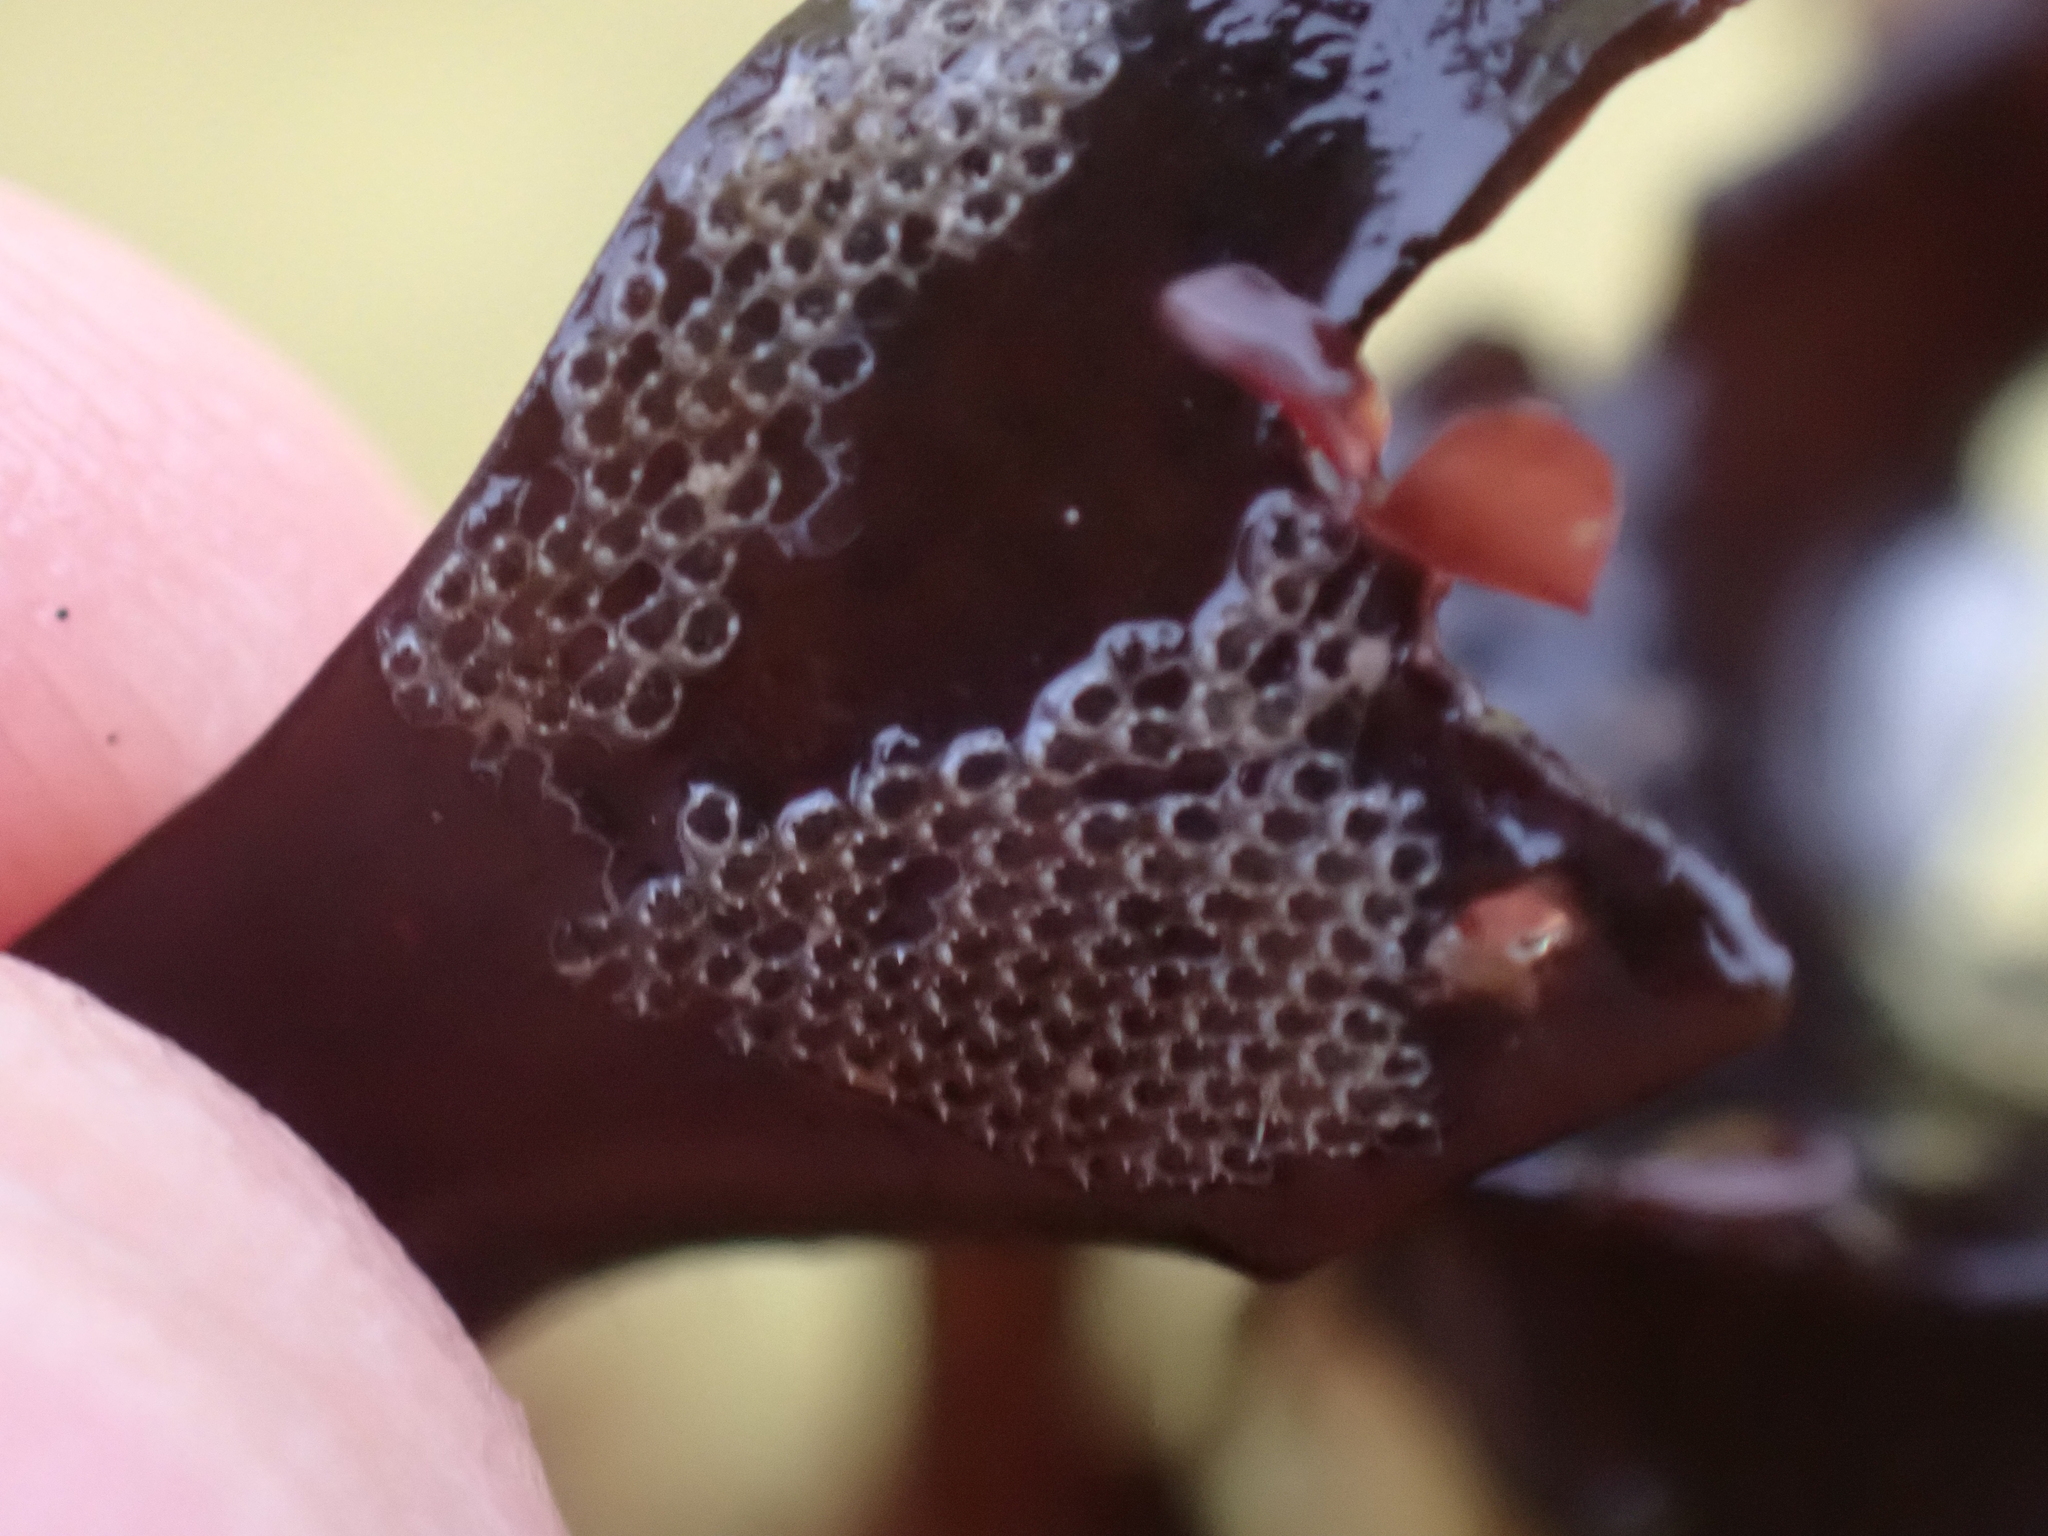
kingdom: Animalia
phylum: Bryozoa
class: Gymnolaemata
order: Cheilostomatida
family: Electridae
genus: Electra
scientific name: Electra pilosa
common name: Hairy sea-mat
